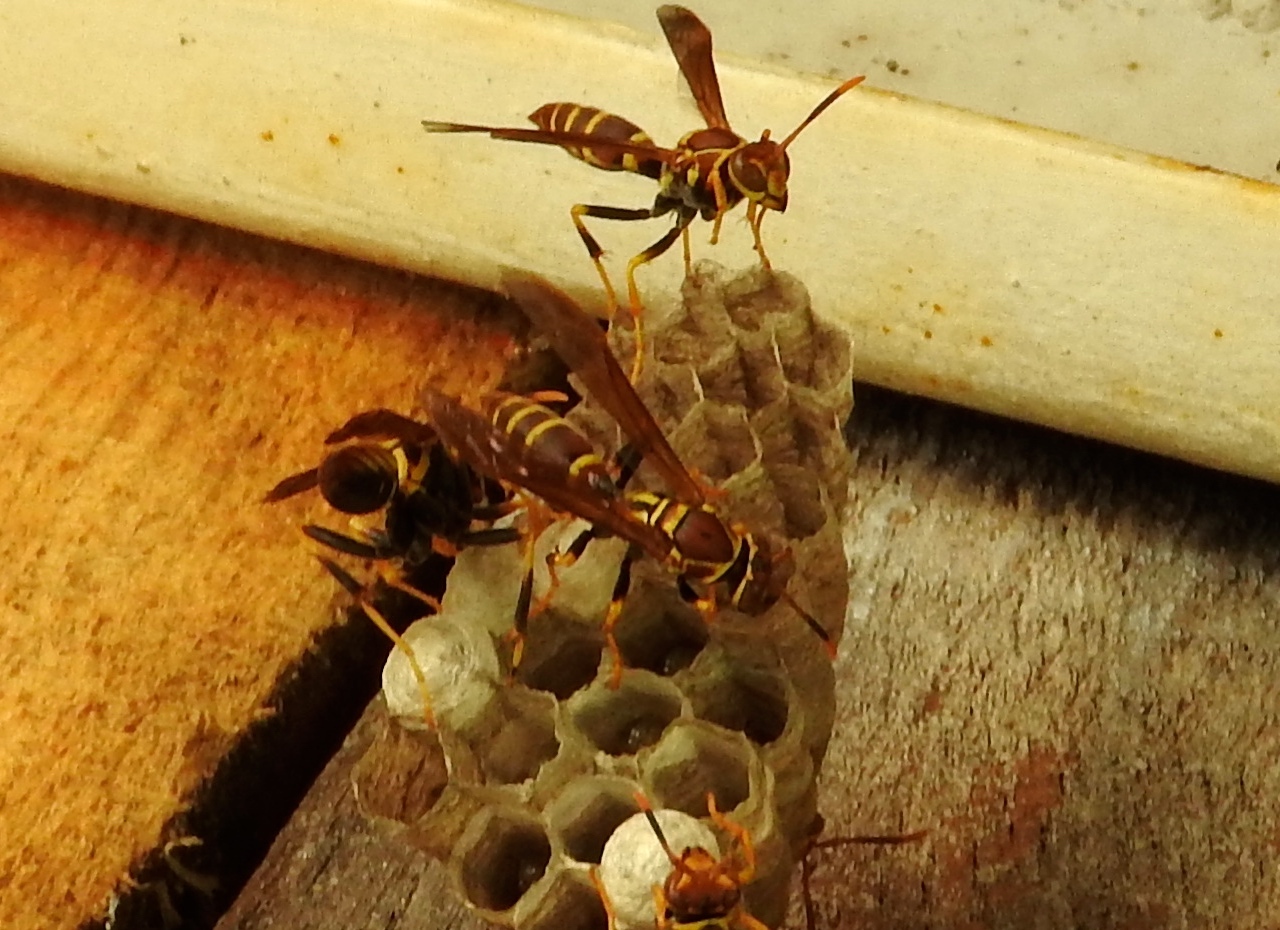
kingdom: Animalia
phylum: Arthropoda
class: Insecta
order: Hymenoptera
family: Eumenidae
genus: Polistes
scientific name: Polistes instabilis
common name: Unstable paper wasp
